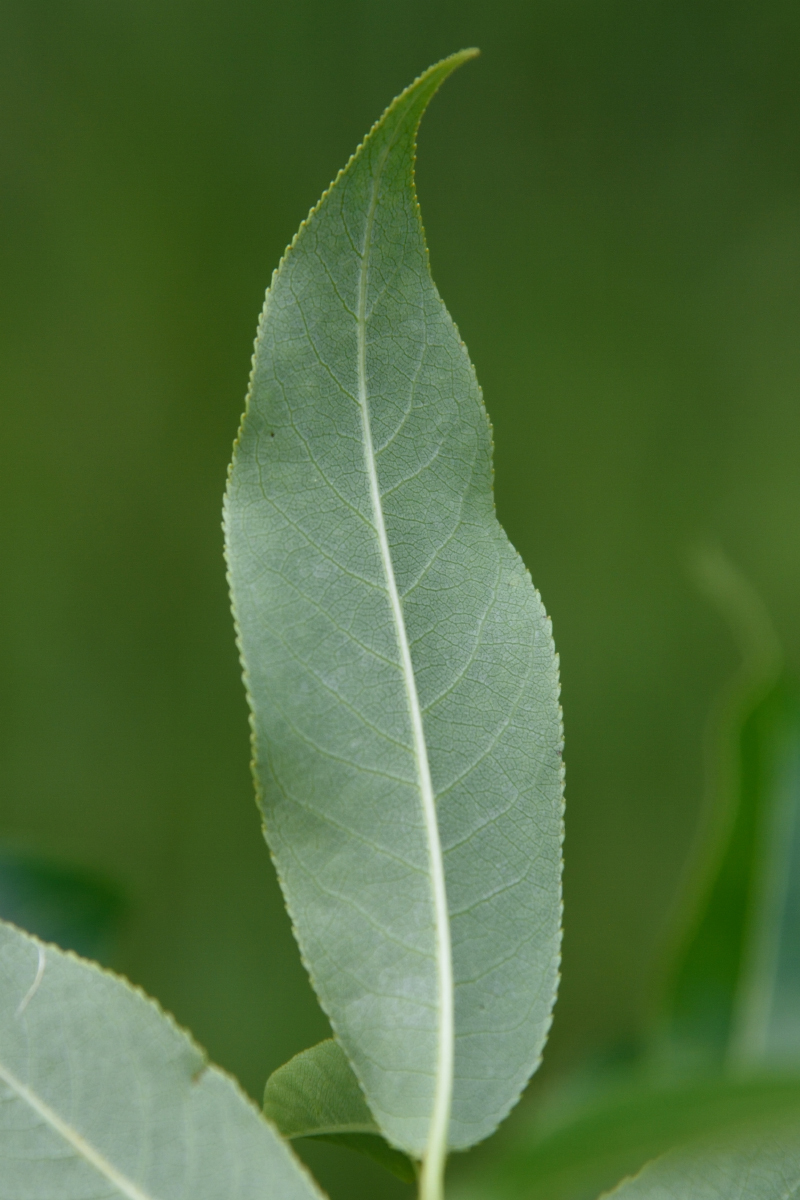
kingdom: Plantae
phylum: Tracheophyta
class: Magnoliopsida
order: Malpighiales
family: Salicaceae
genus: Salix
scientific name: Salix pentandra
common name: Bay willow
